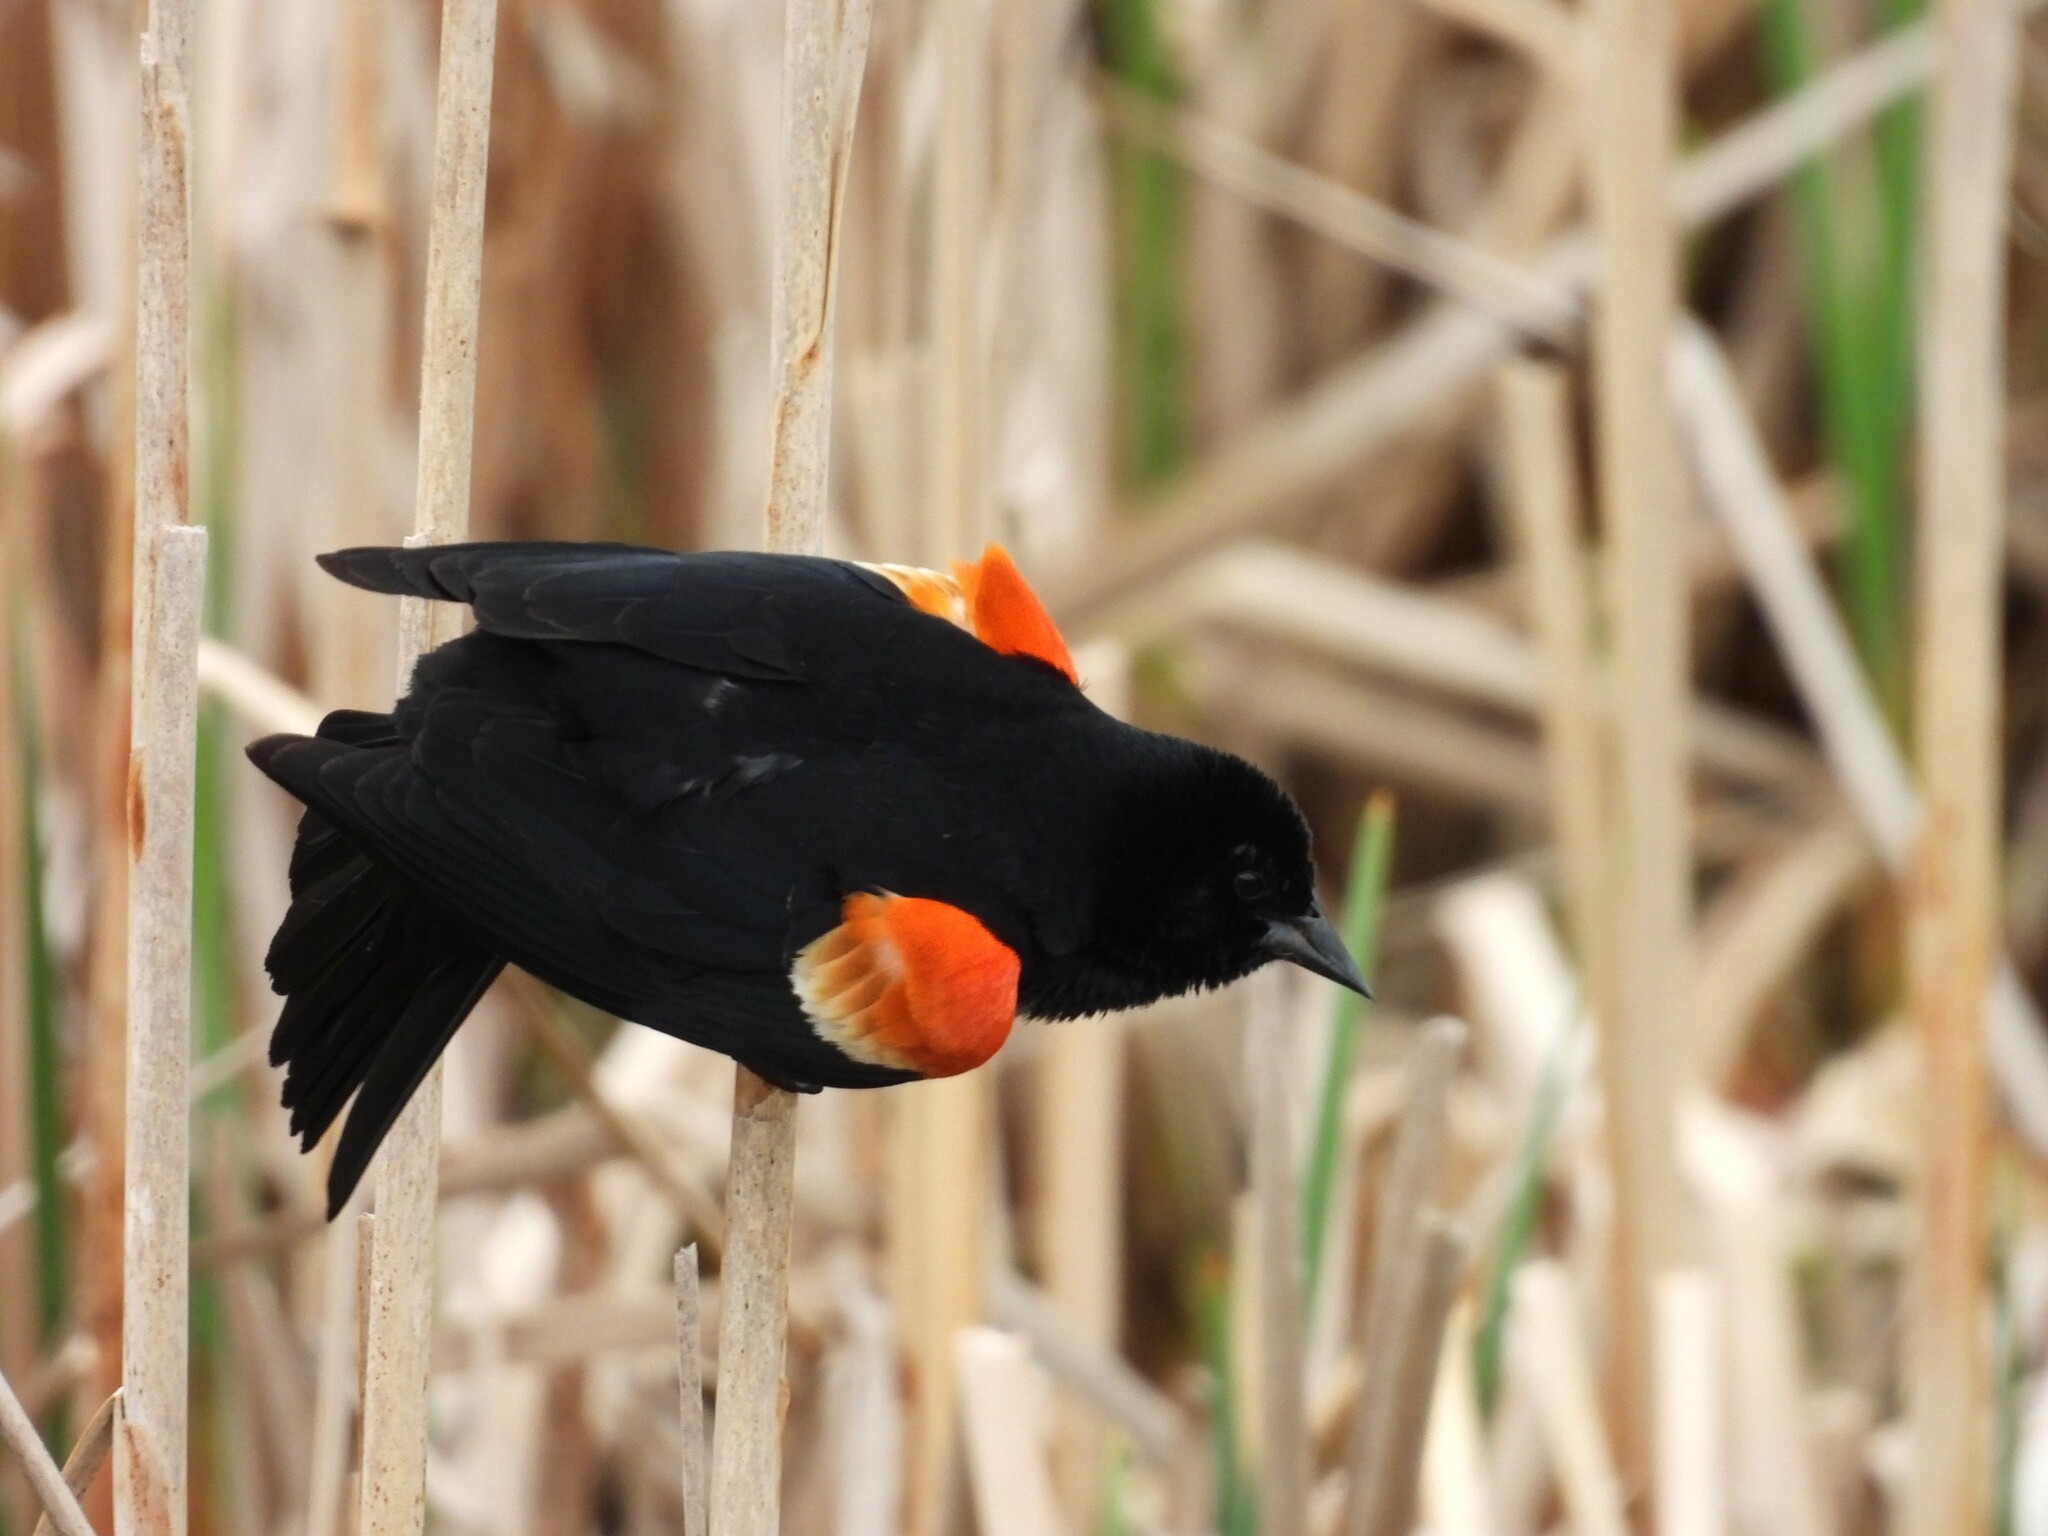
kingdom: Animalia
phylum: Chordata
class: Aves
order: Passeriformes
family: Icteridae
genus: Agelaius
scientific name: Agelaius phoeniceus
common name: Red-winged blackbird
